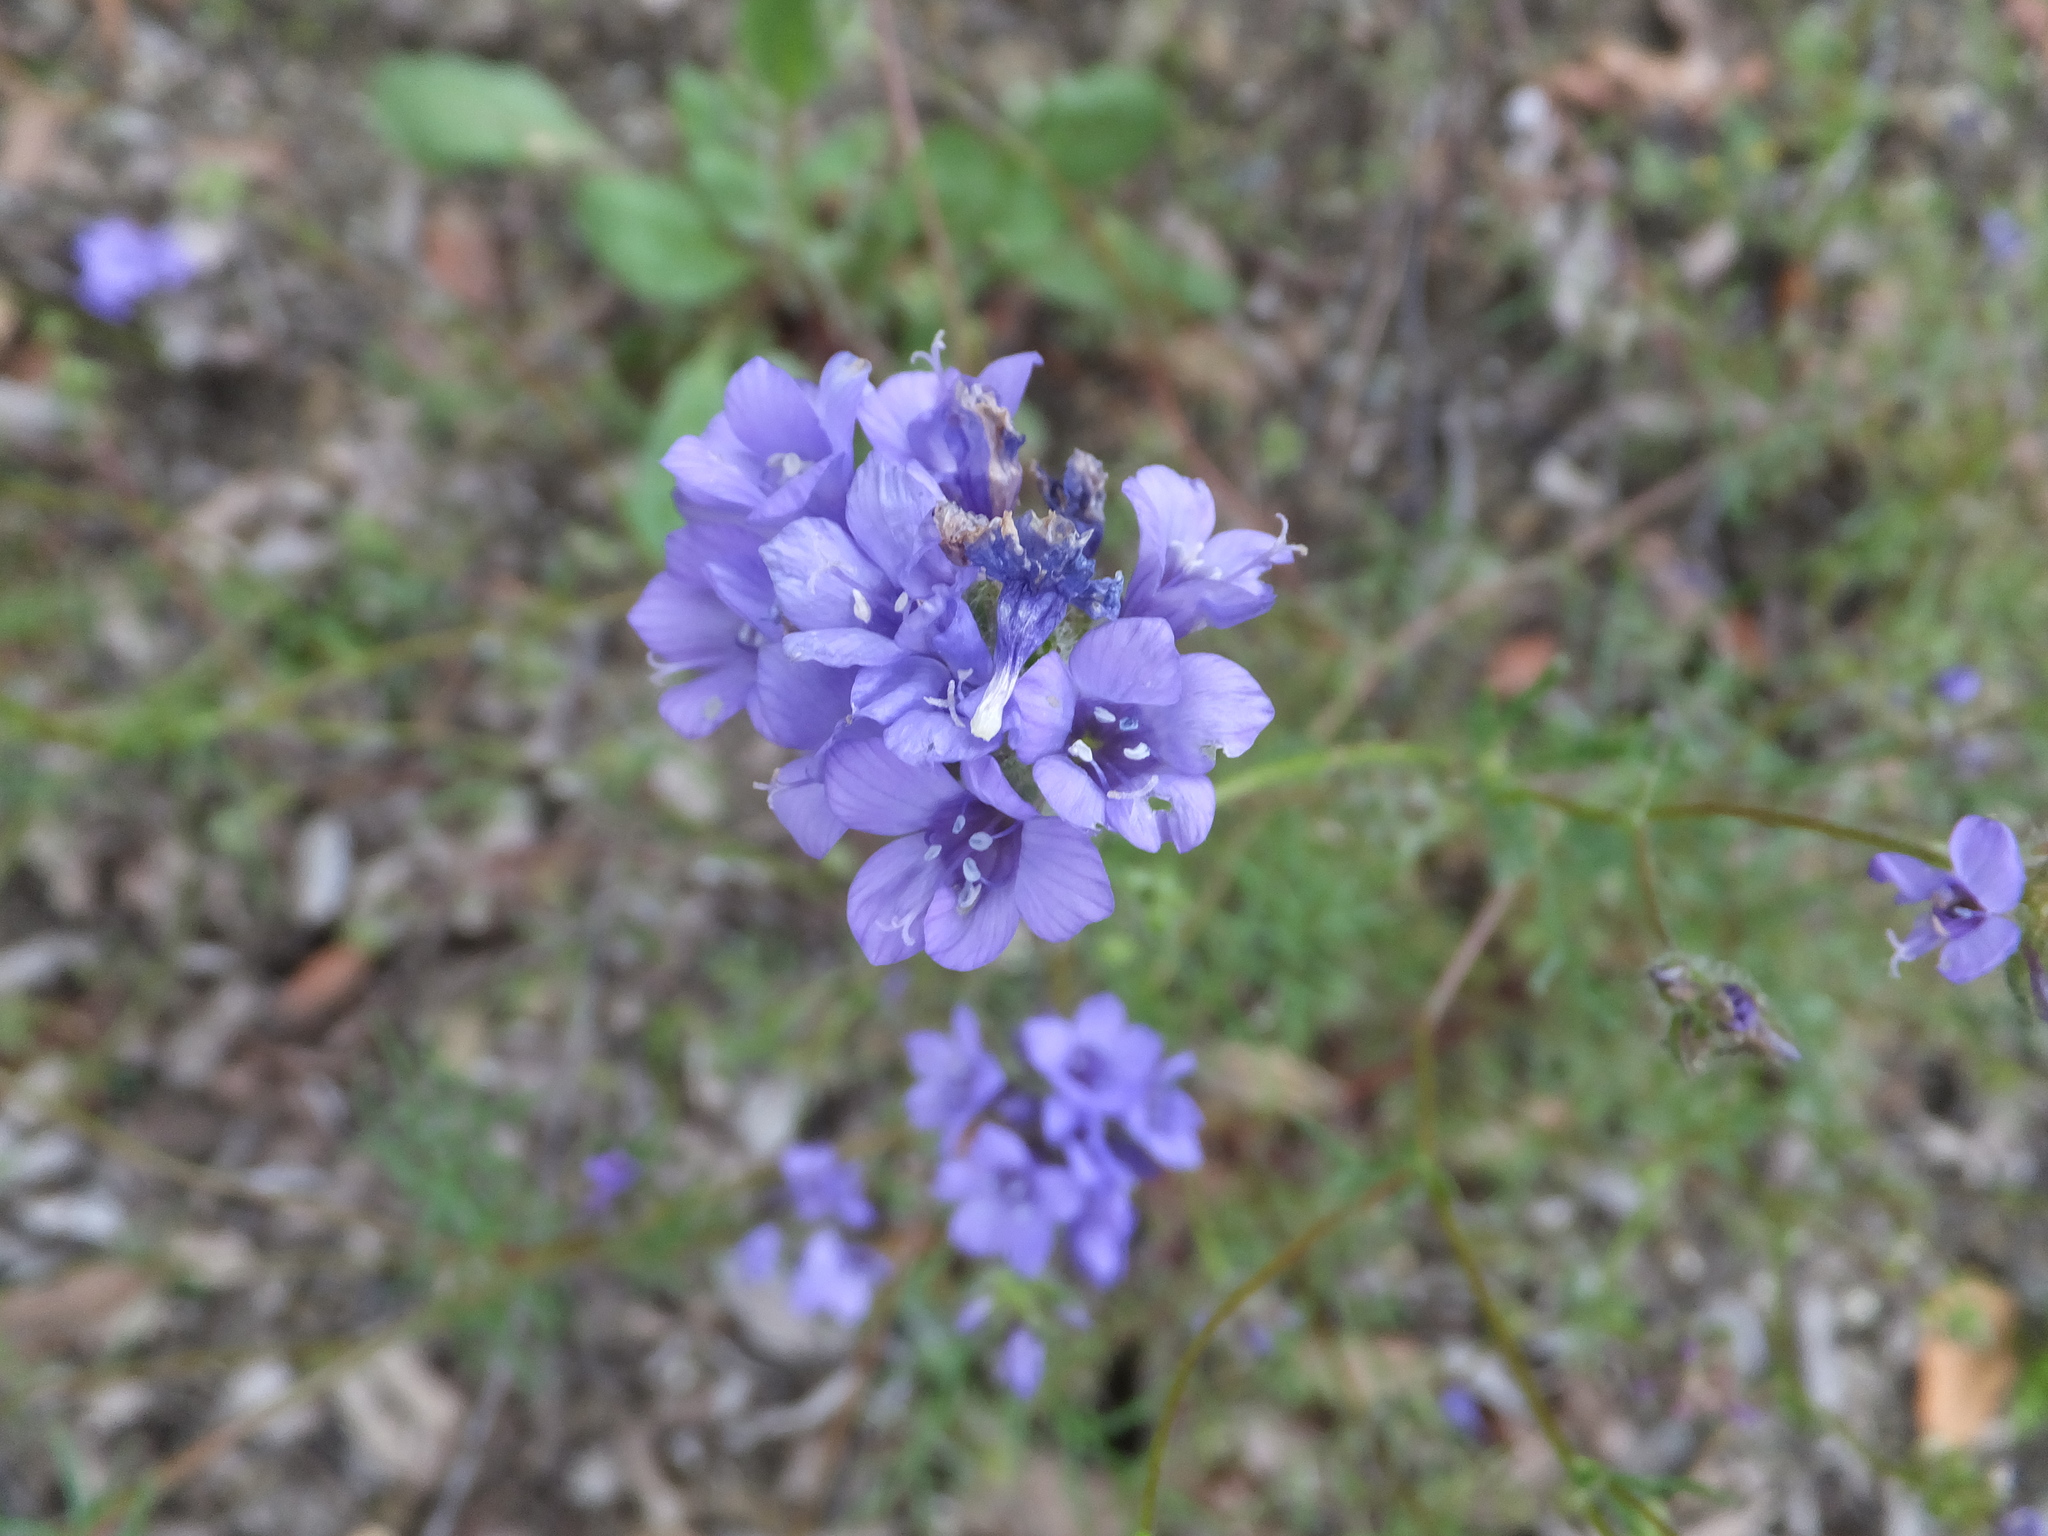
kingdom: Plantae
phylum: Tracheophyta
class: Magnoliopsida
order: Ericales
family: Polemoniaceae
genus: Gilia
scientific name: Gilia achilleifolia
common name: California gily-flower
